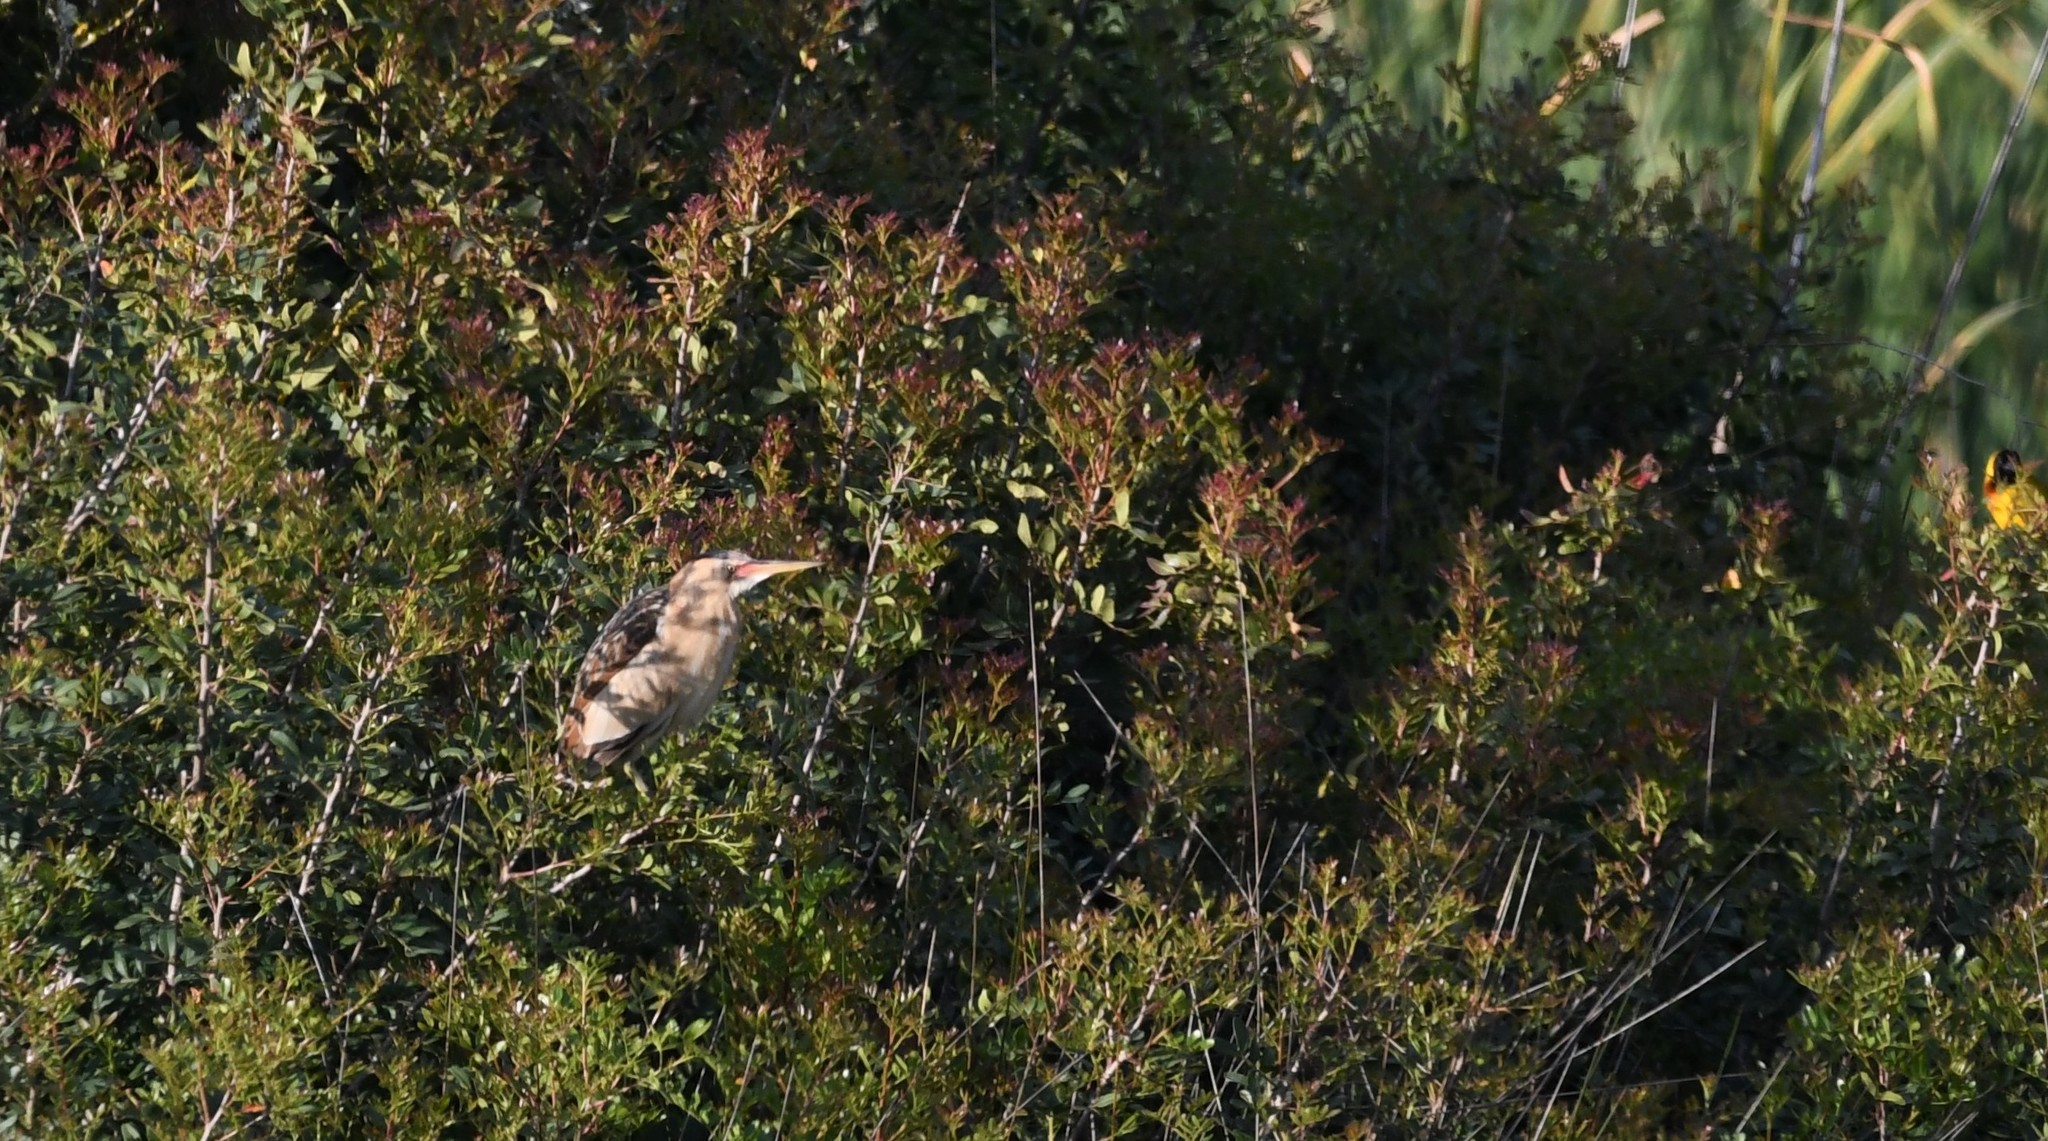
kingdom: Animalia
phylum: Chordata
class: Aves
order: Pelecaniformes
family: Ardeidae
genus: Ixobrychus
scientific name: Ixobrychus minutus
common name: Little bittern
